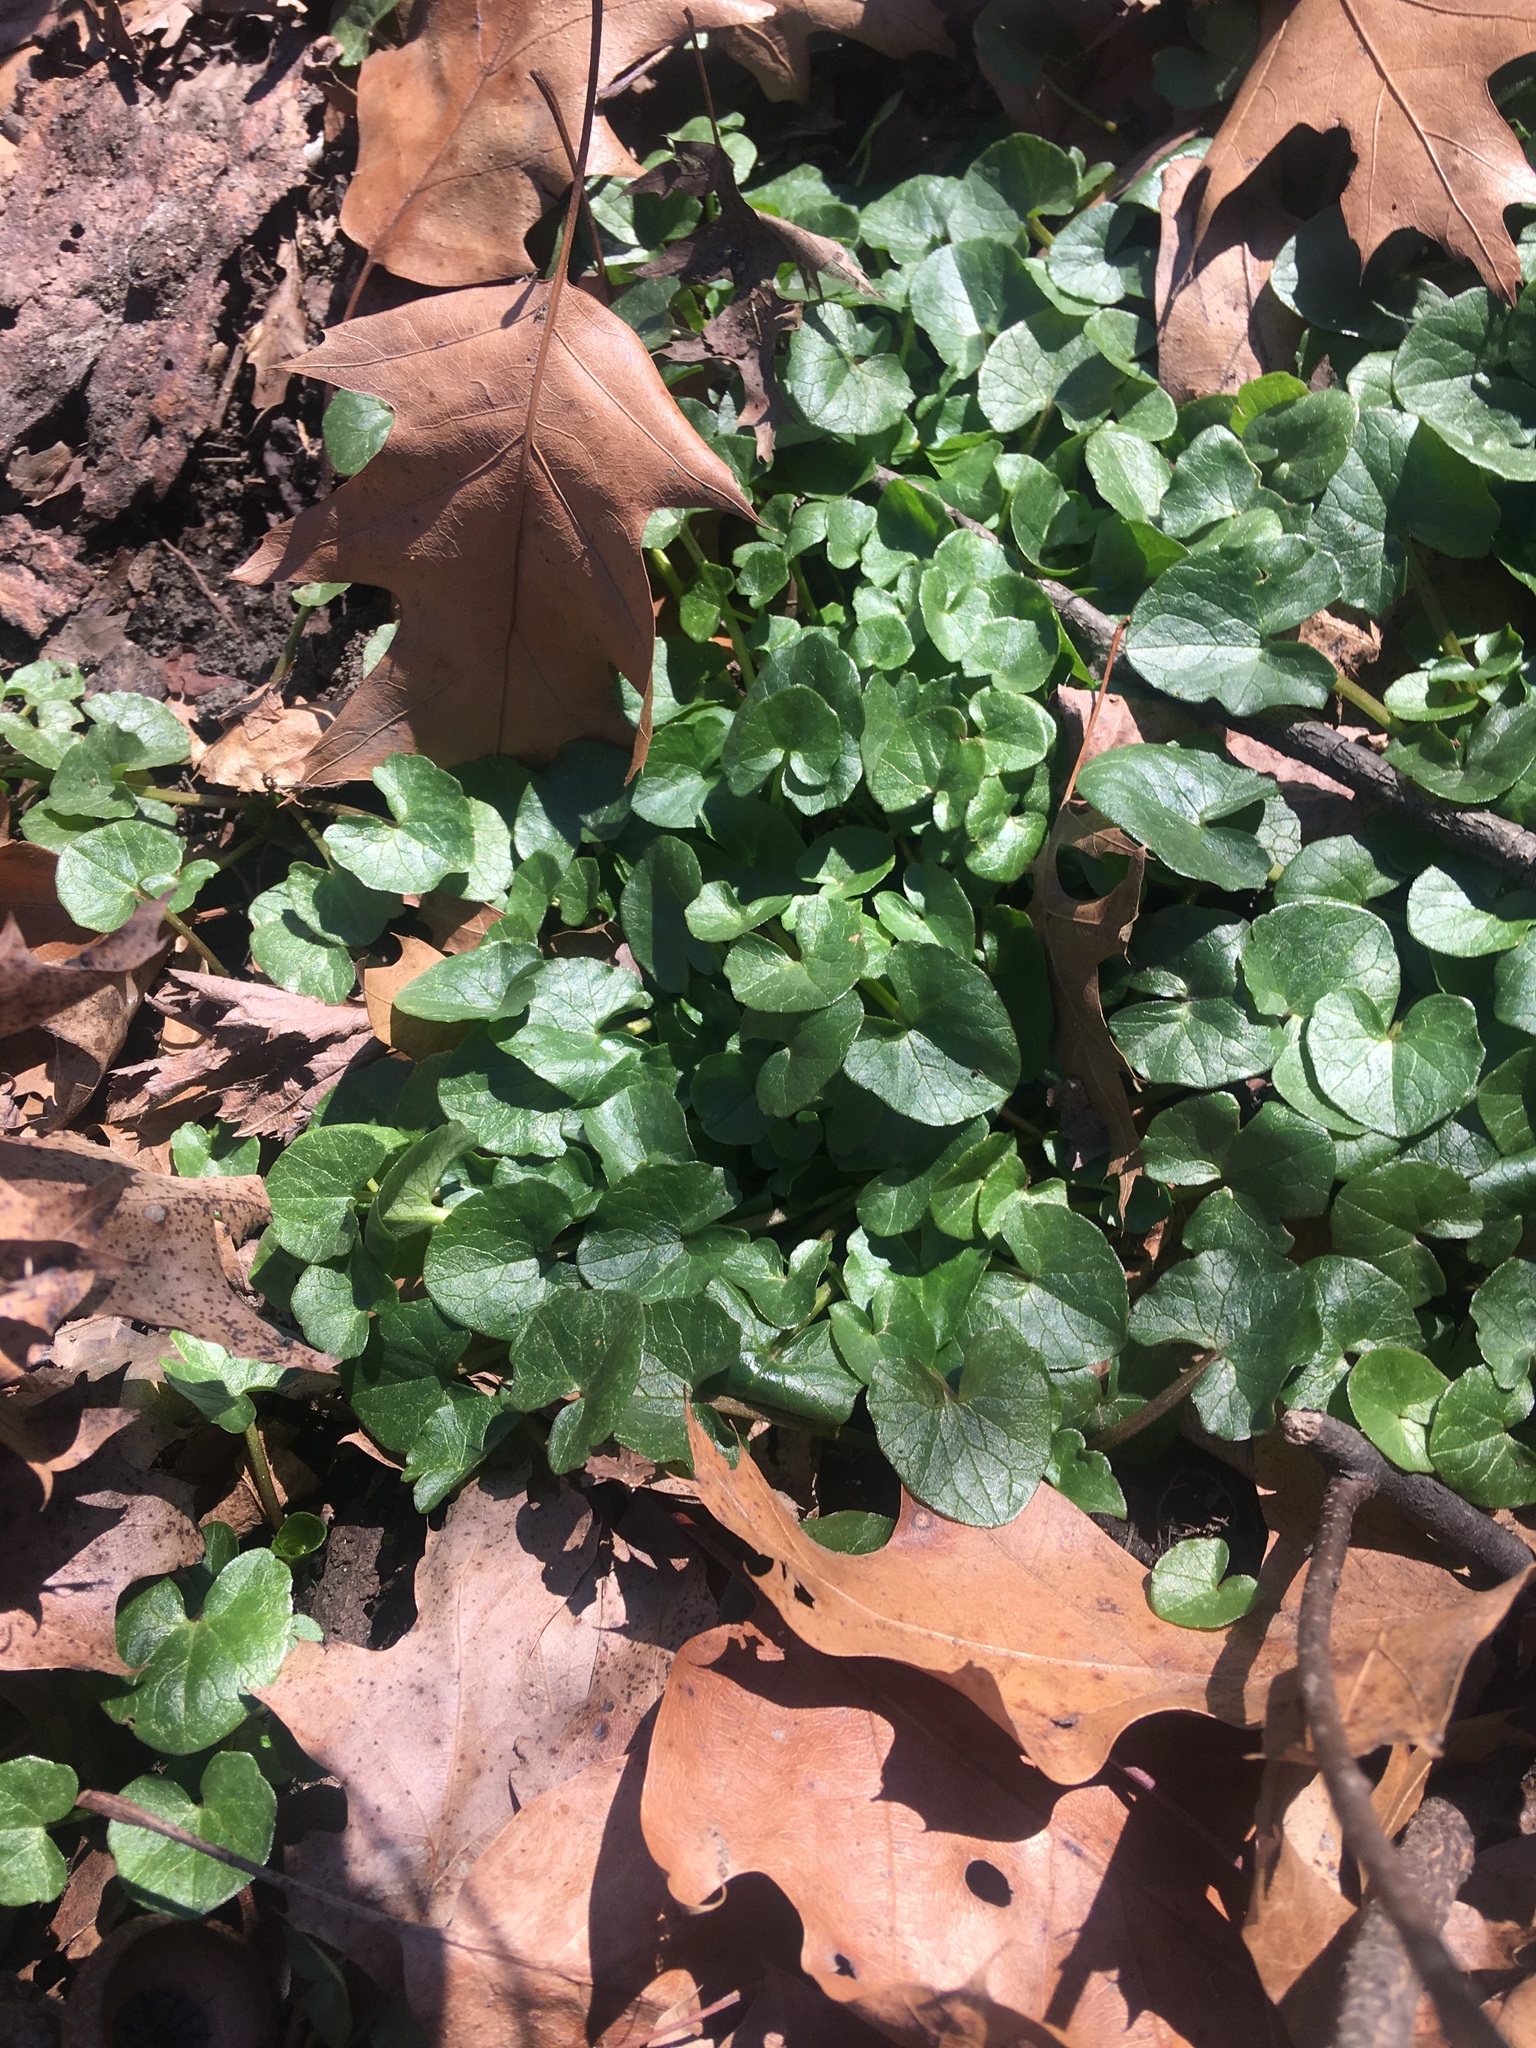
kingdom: Plantae
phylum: Tracheophyta
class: Magnoliopsida
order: Ranunculales
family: Ranunculaceae
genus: Ficaria
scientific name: Ficaria verna
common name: Lesser celandine
